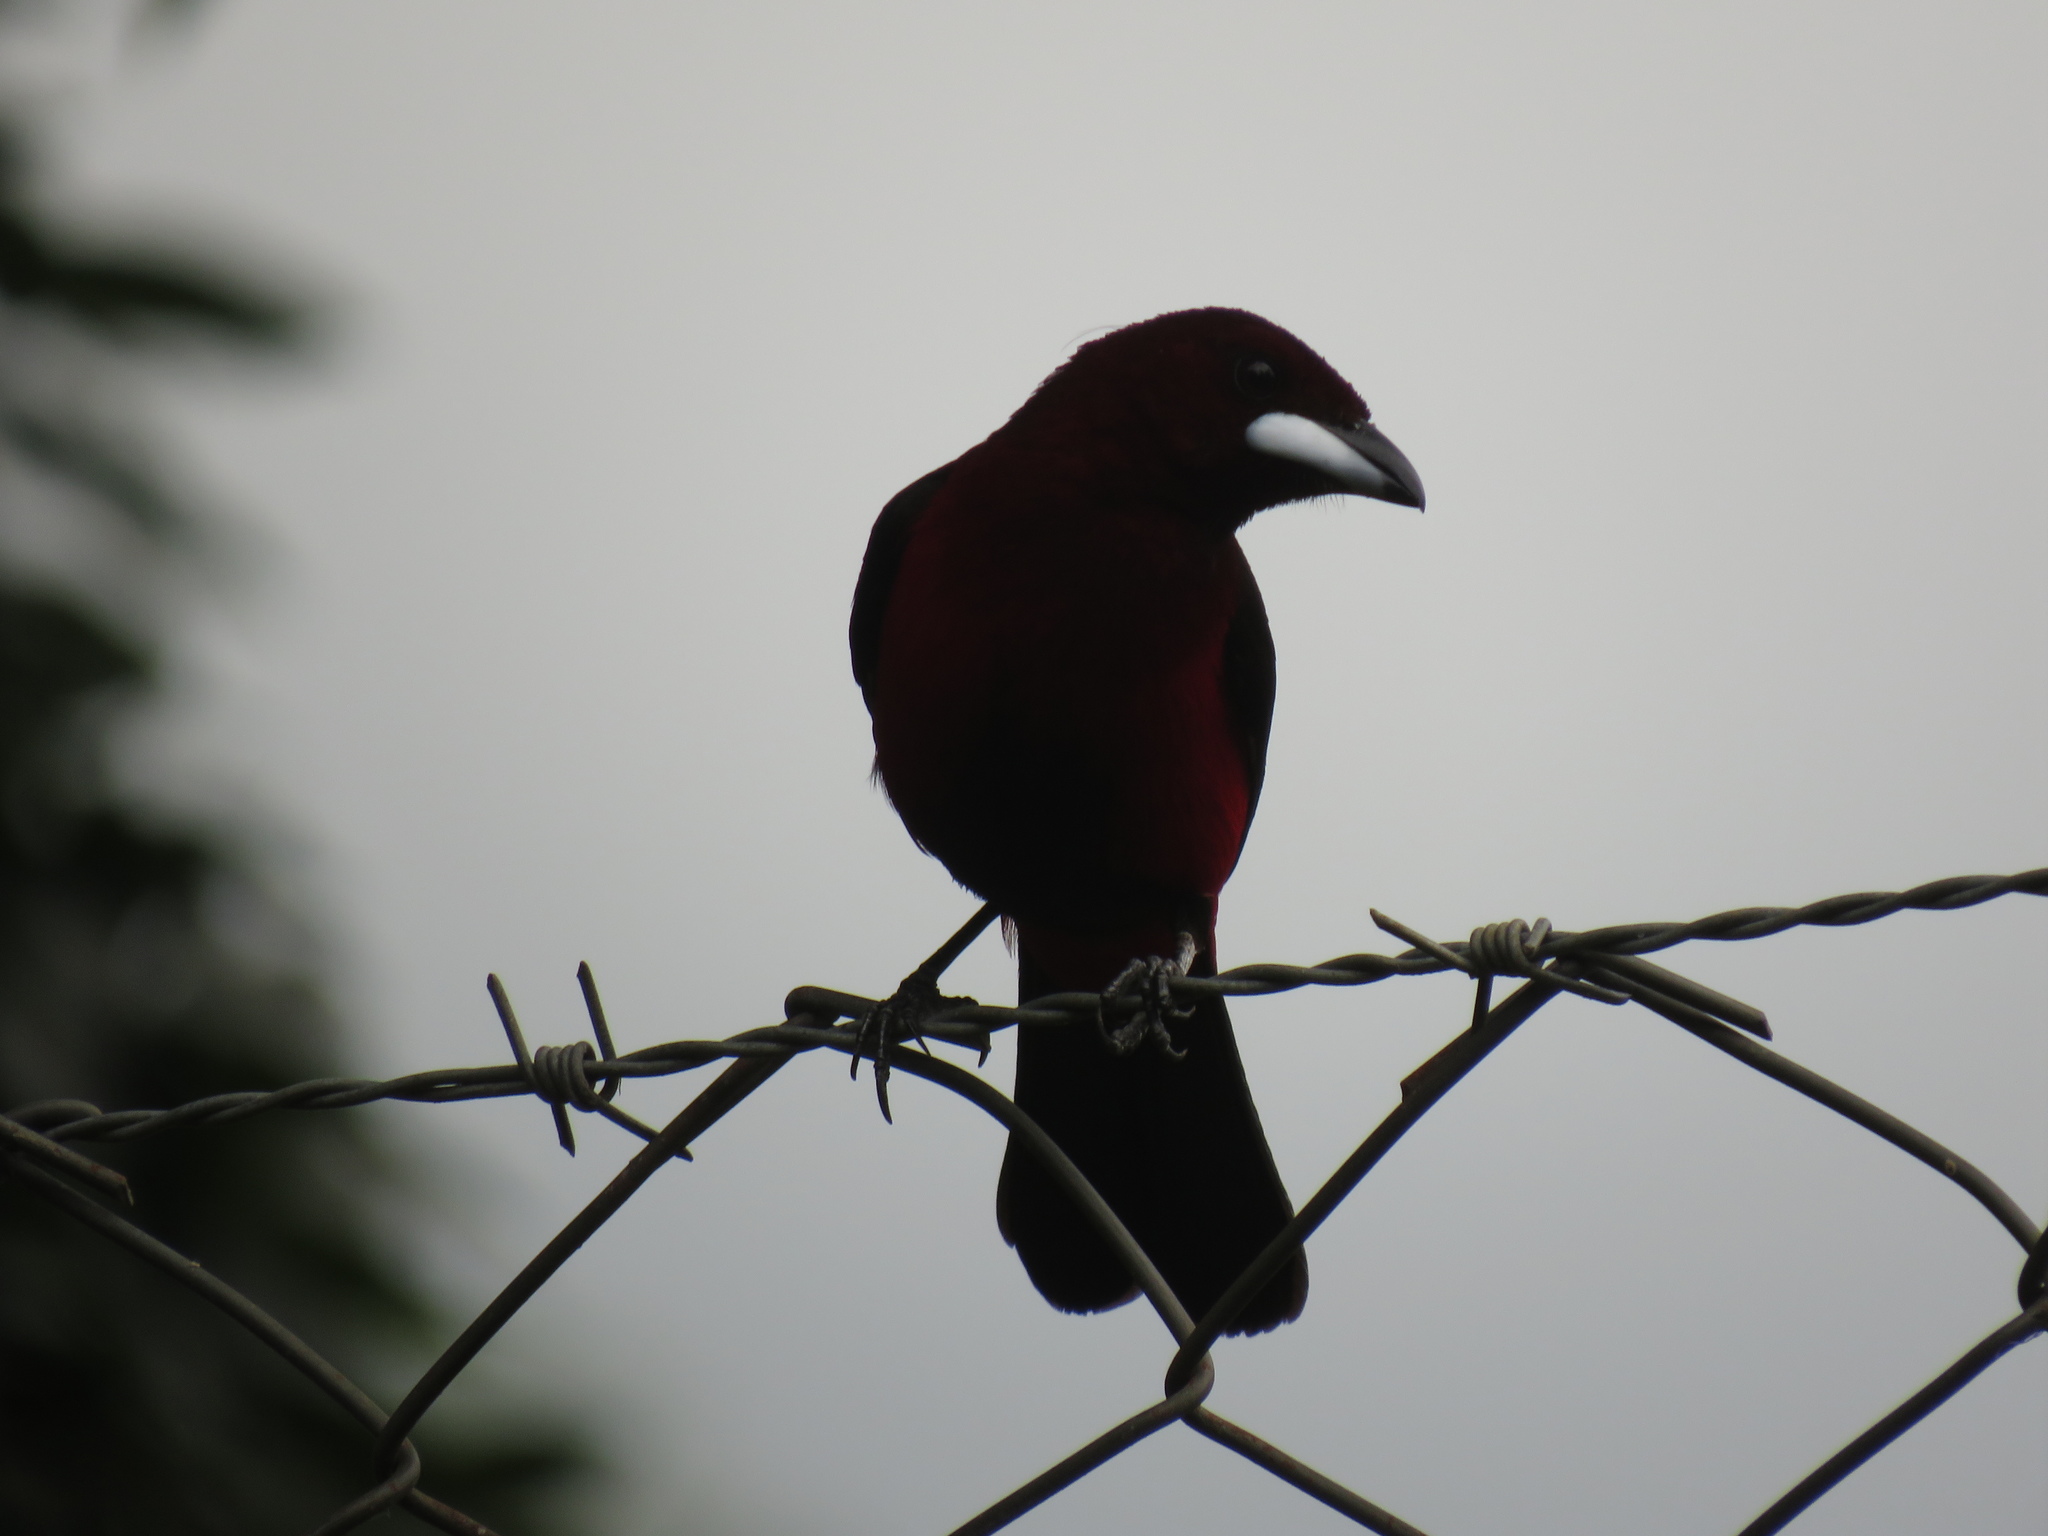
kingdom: Animalia
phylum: Chordata
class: Aves
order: Passeriformes
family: Thraupidae
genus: Ramphocelus
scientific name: Ramphocelus dimidiatus
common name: Crimson-backed tanager
